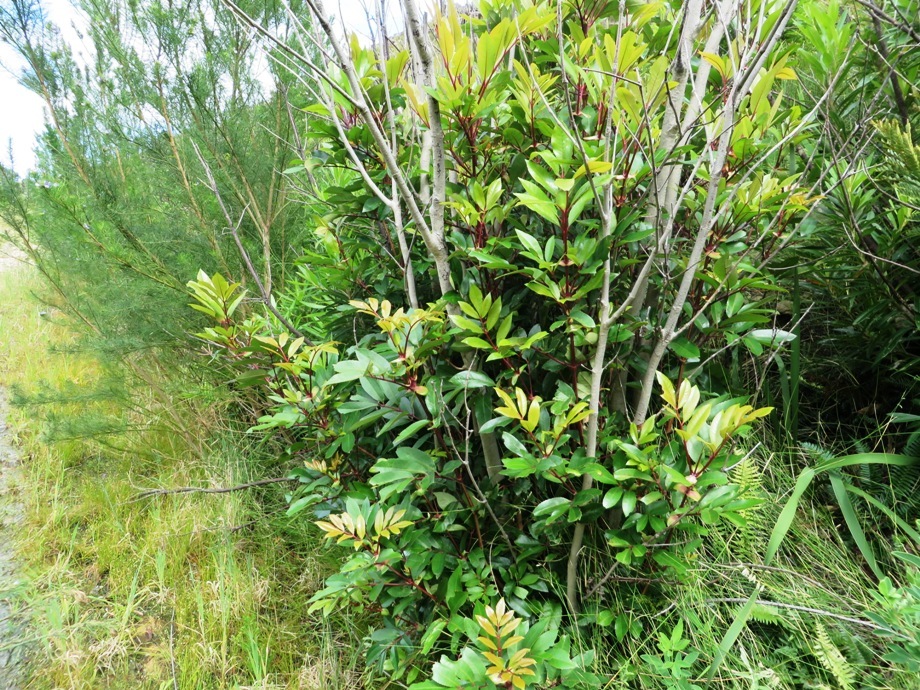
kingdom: Plantae
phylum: Tracheophyta
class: Magnoliopsida
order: Oxalidales
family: Cunoniaceae
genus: Cunonia
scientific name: Cunonia capensis
